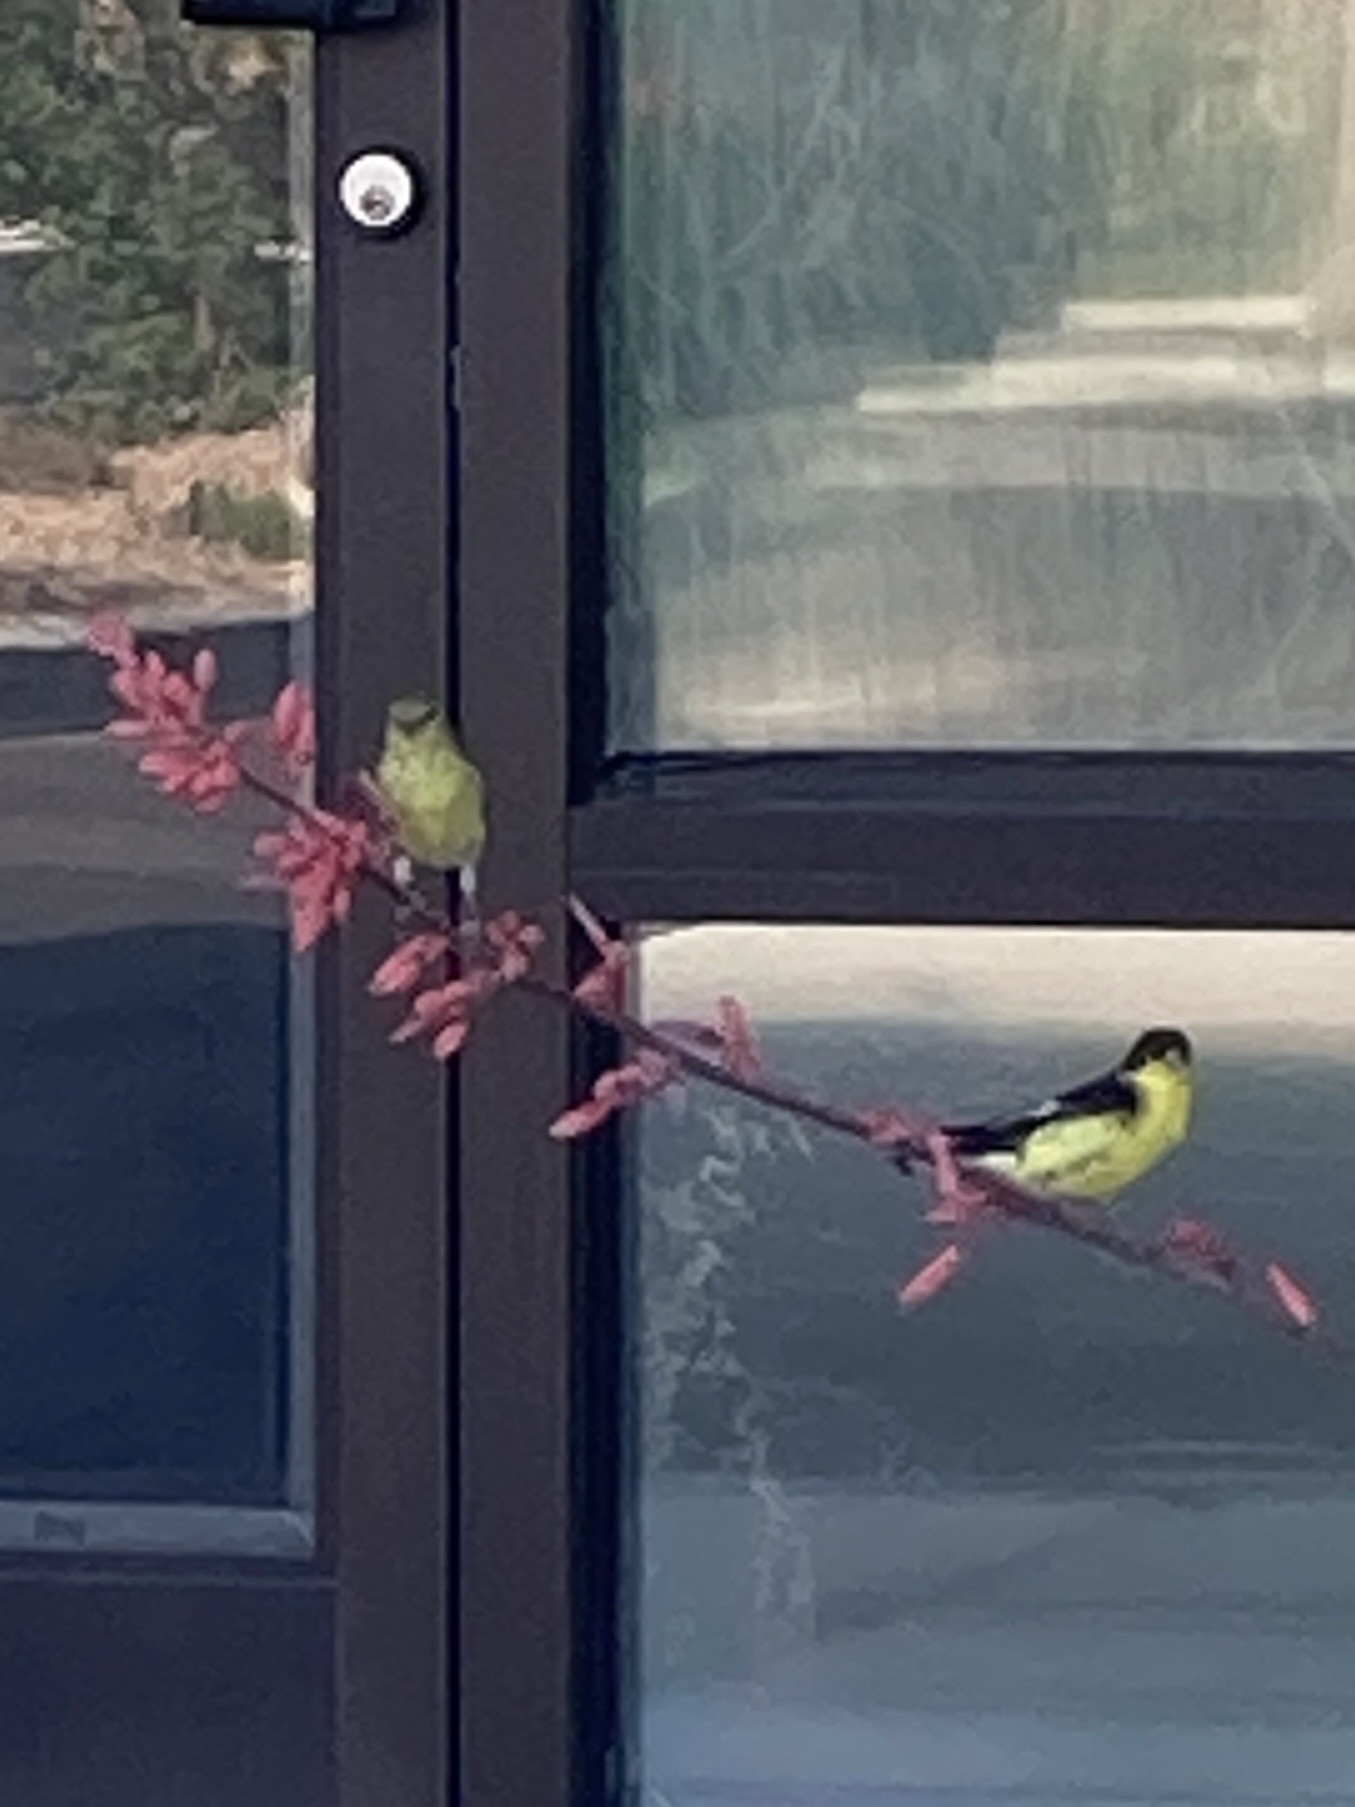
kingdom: Animalia
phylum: Chordata
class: Aves
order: Passeriformes
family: Fringillidae
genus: Spinus
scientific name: Spinus psaltria
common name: Lesser goldfinch
